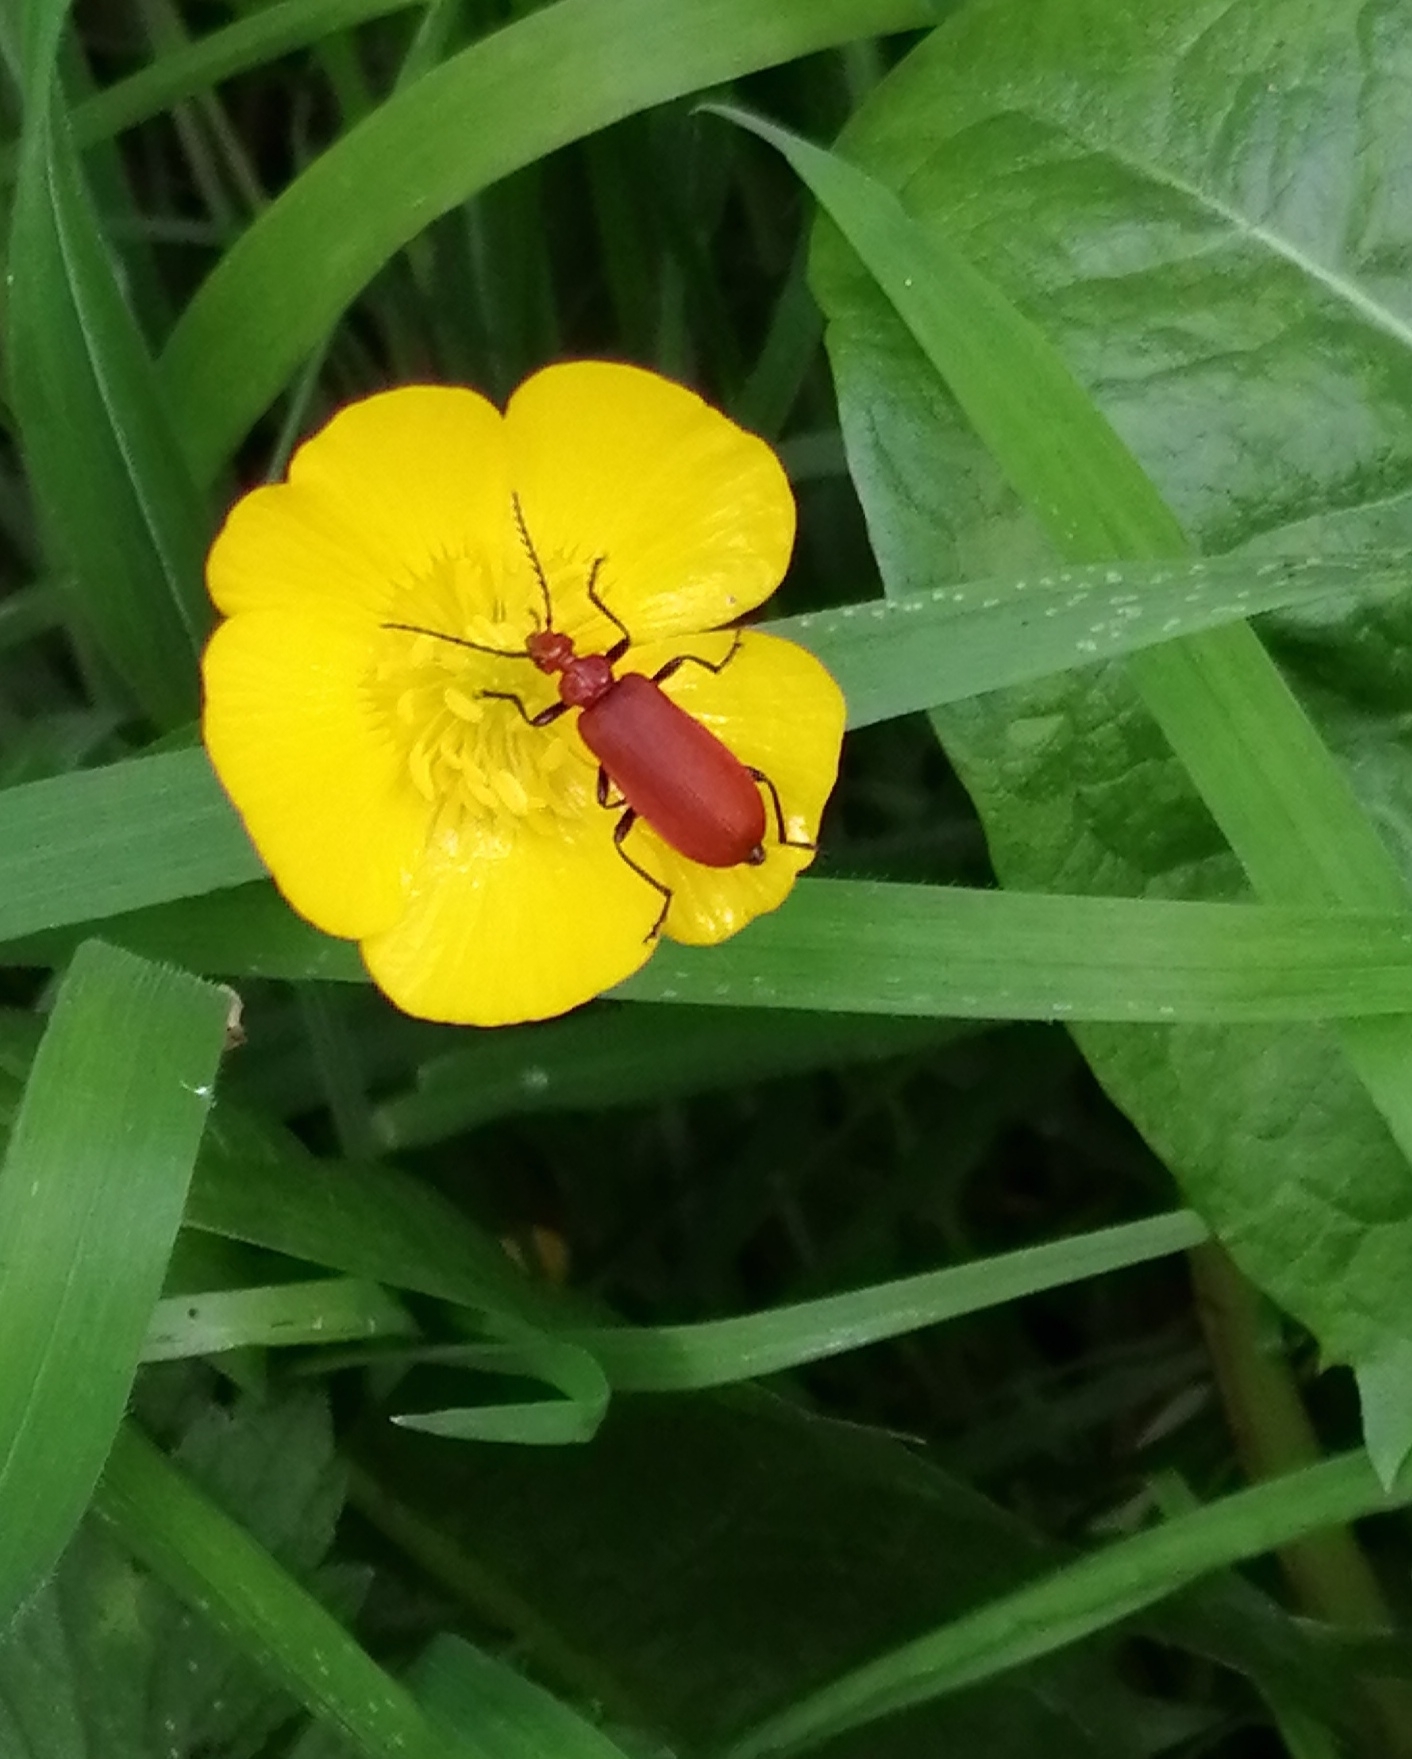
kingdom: Animalia
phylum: Arthropoda
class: Insecta
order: Coleoptera
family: Pyrochroidae
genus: Pyrochroa
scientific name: Pyrochroa serraticornis
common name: Red-headed cardinal beetle
